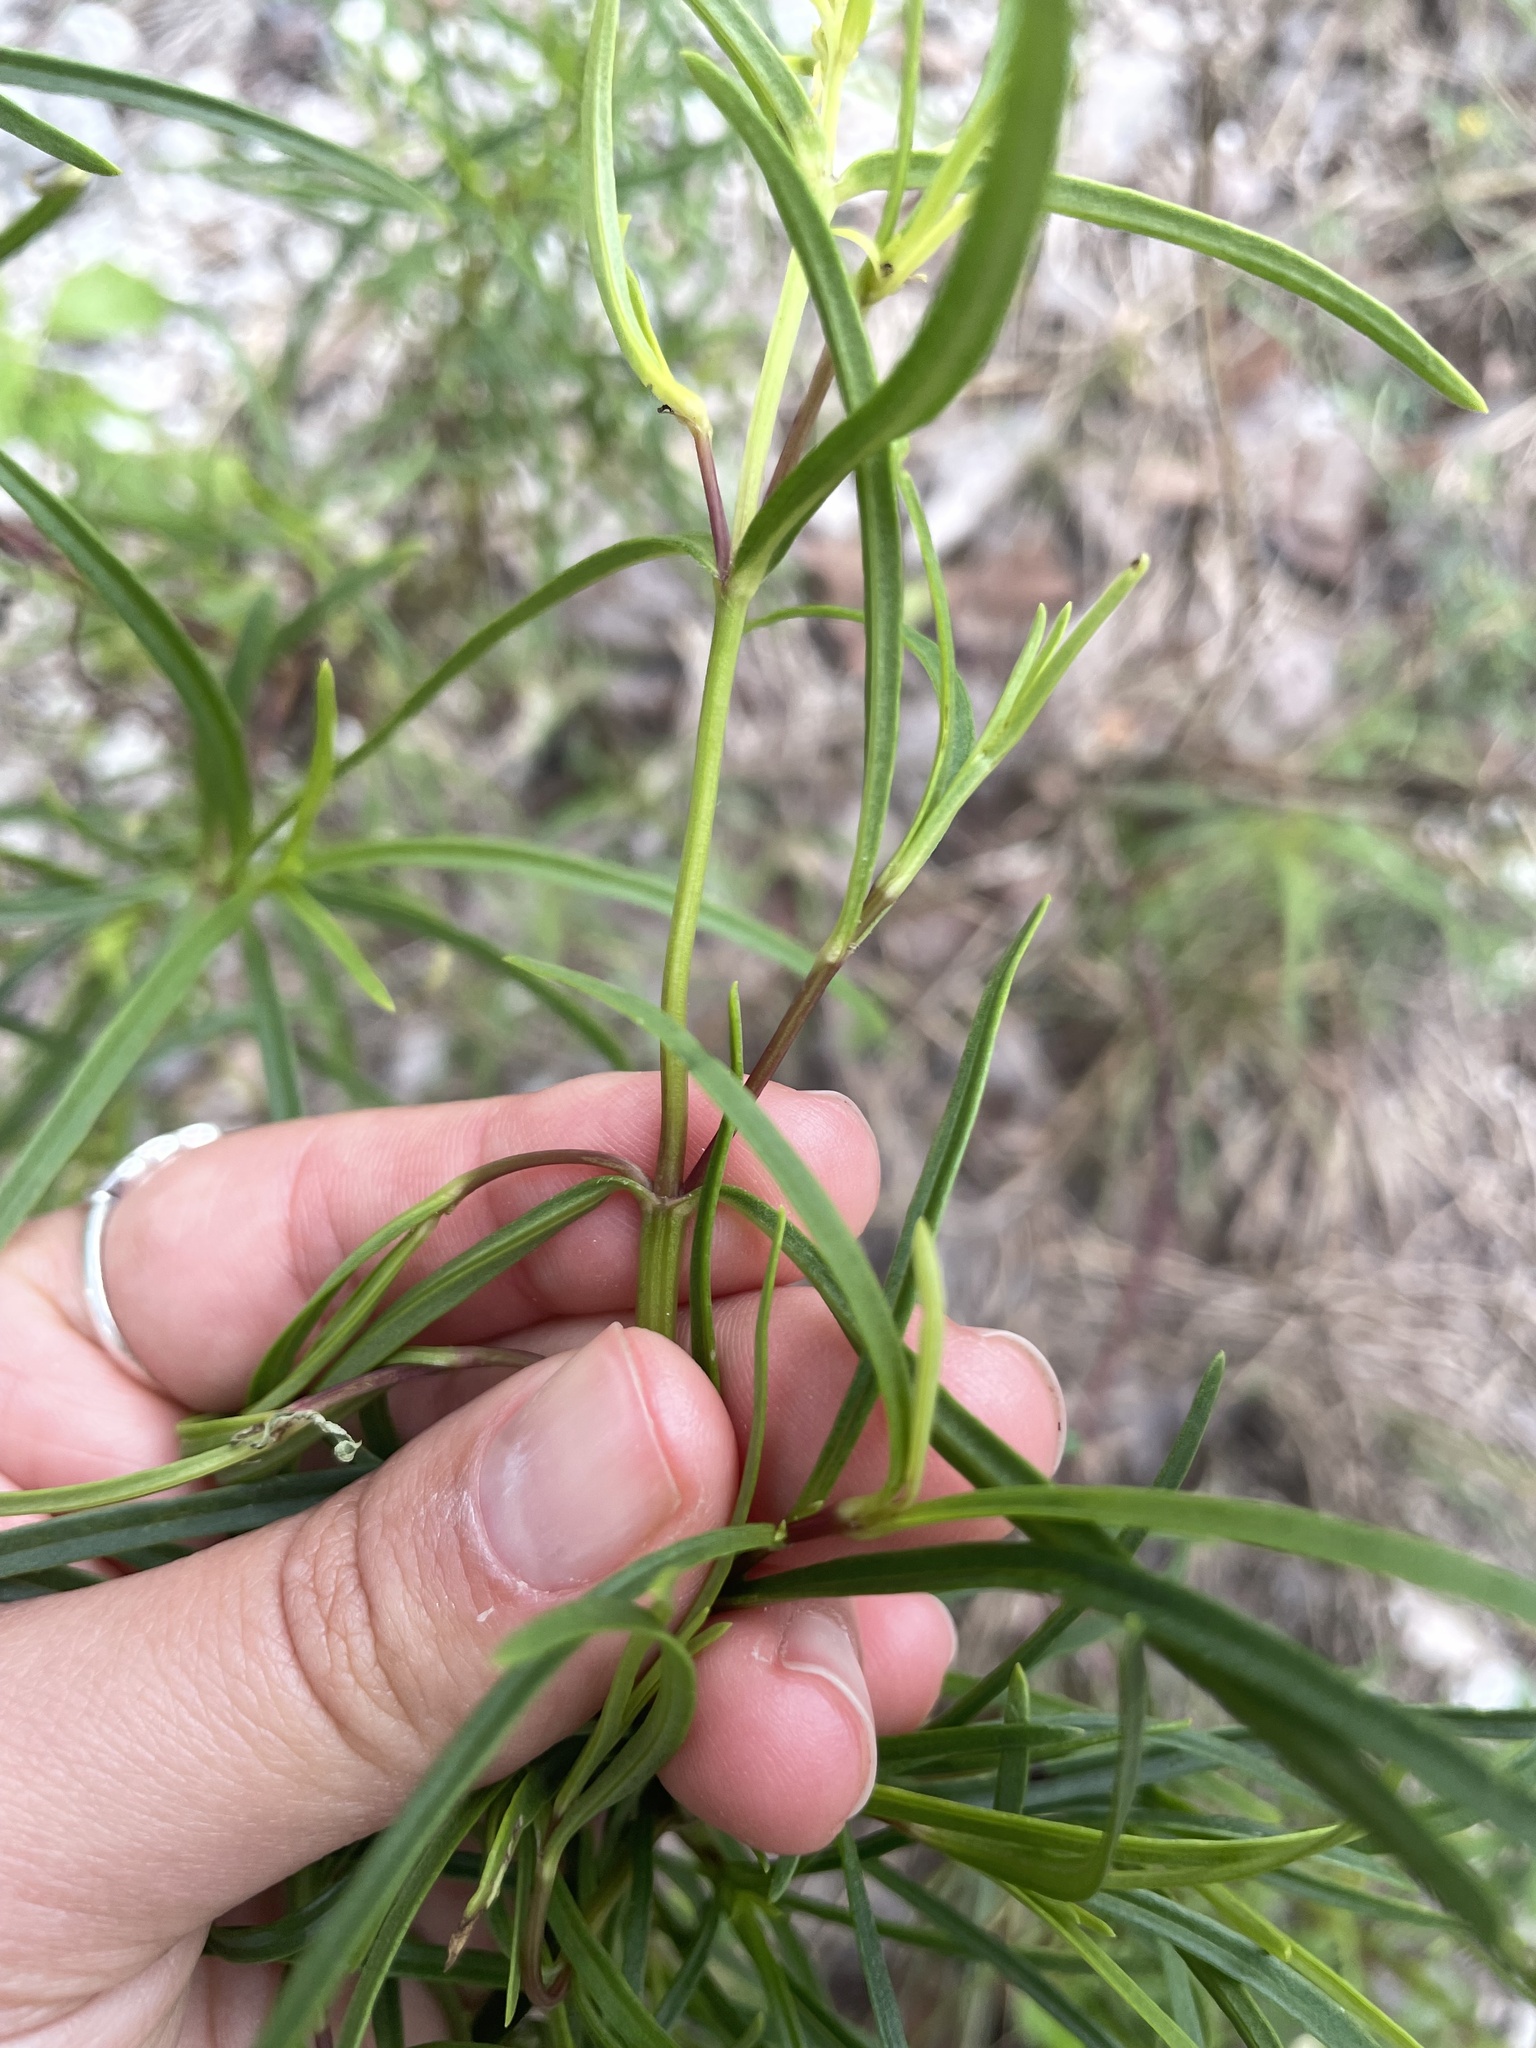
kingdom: Plantae
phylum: Tracheophyta
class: Magnoliopsida
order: Asterales
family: Asteraceae
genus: Flaveria
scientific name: Flaveria linearis
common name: Yellowtop
